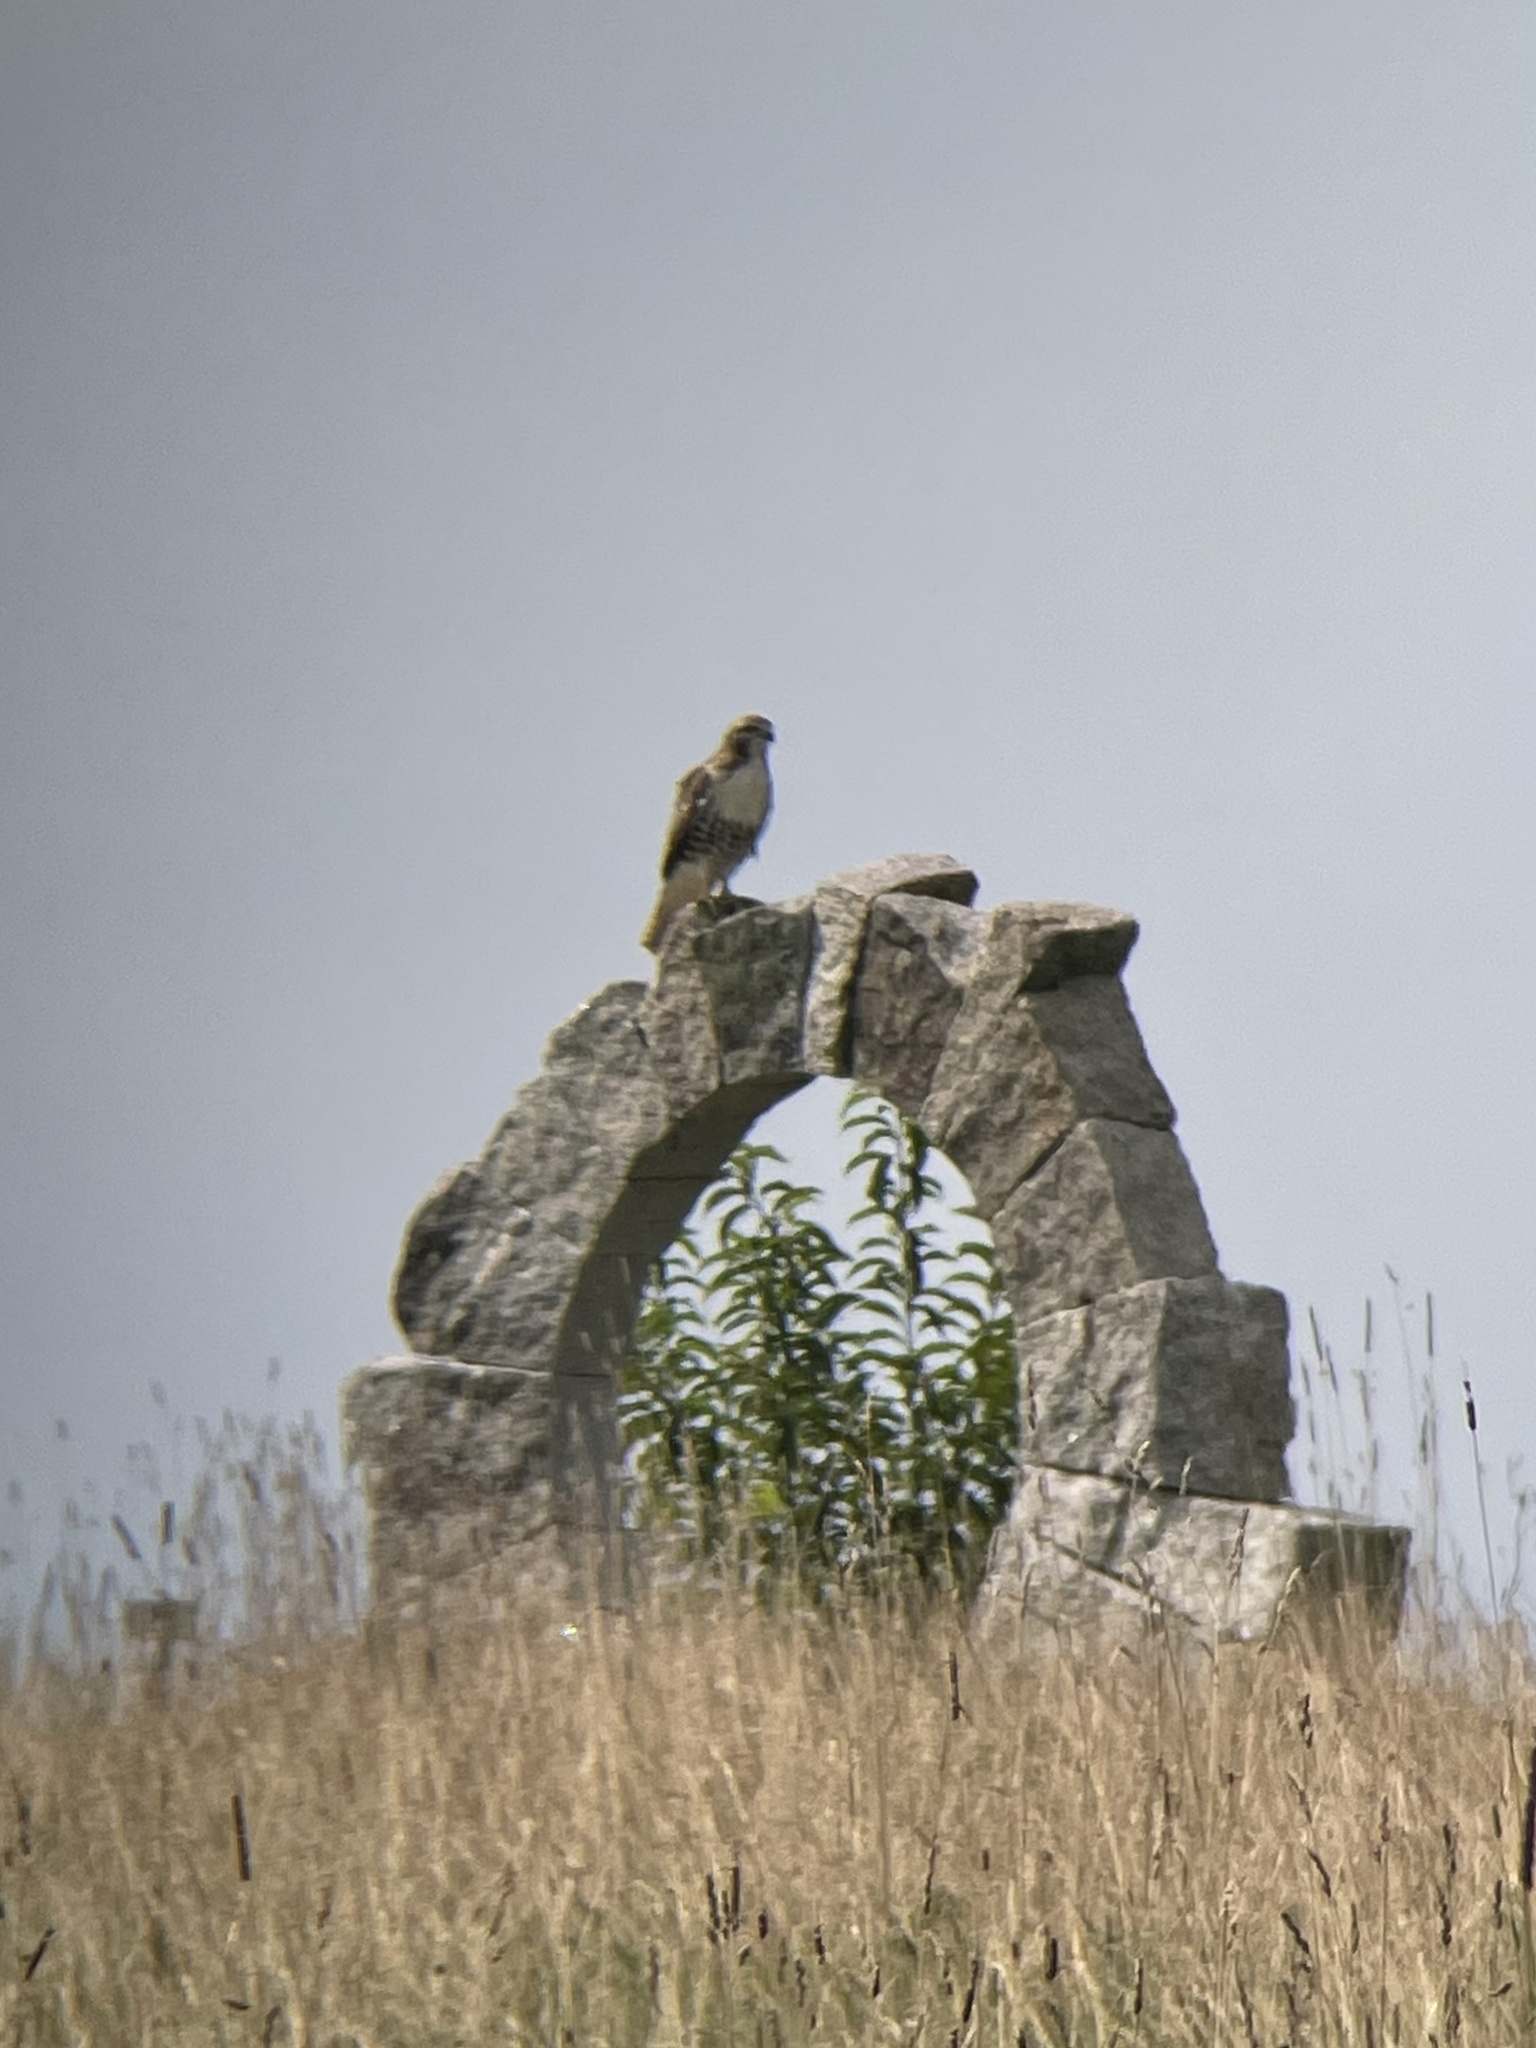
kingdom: Animalia
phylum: Chordata
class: Aves
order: Accipitriformes
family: Accipitridae
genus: Buteo
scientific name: Buteo jamaicensis
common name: Red-tailed hawk
